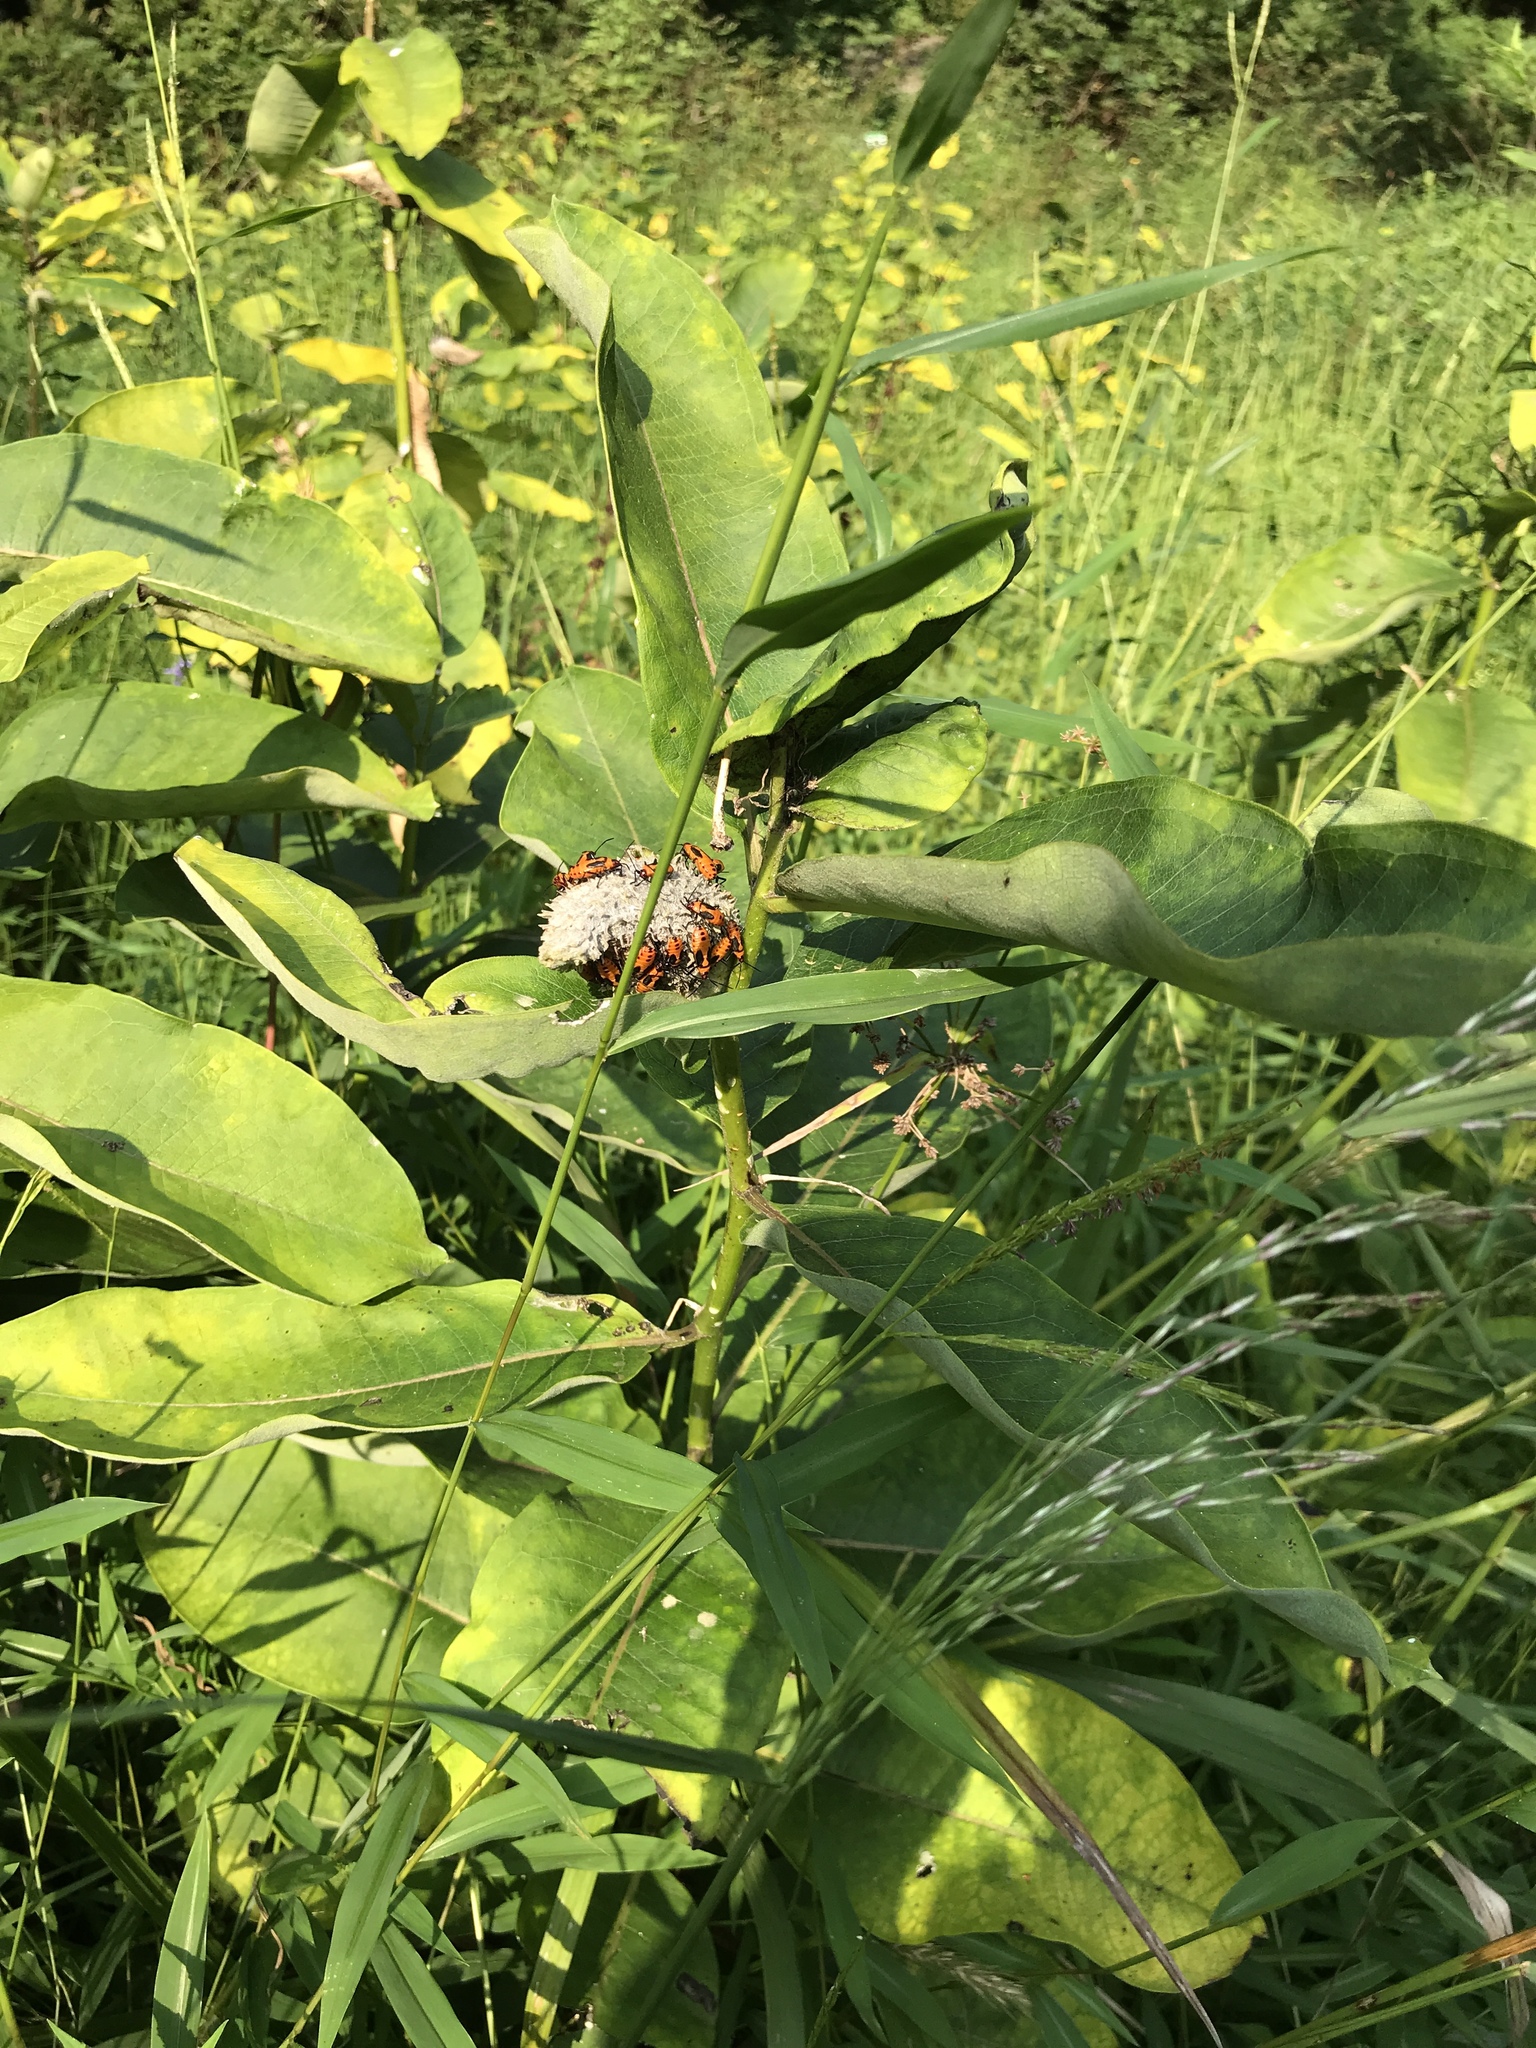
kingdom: Plantae
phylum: Tracheophyta
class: Magnoliopsida
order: Gentianales
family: Apocynaceae
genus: Asclepias
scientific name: Asclepias syriaca
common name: Common milkweed
